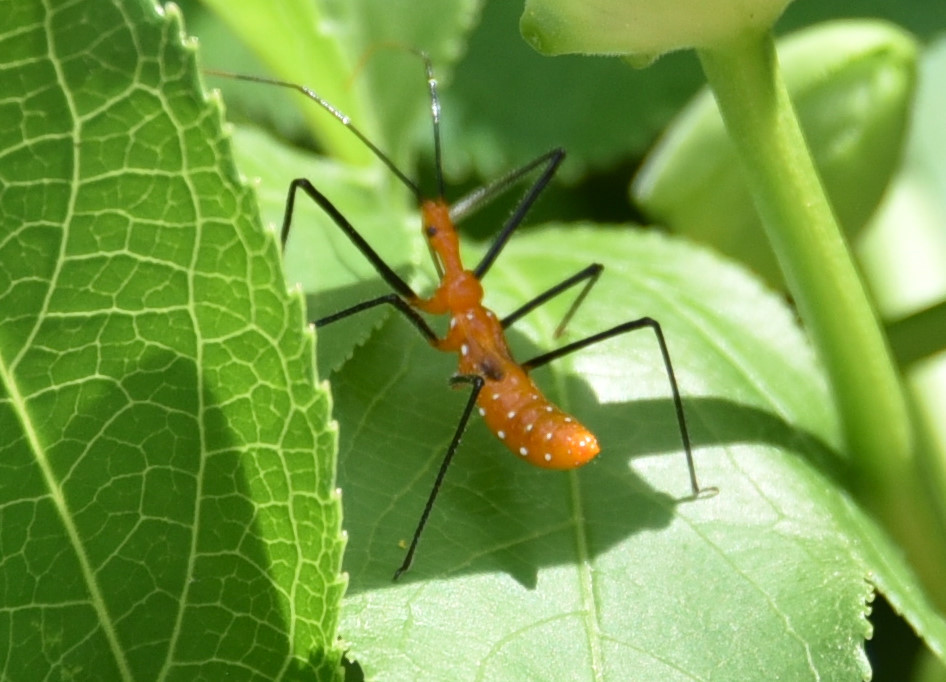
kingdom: Animalia
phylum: Arthropoda
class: Insecta
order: Hemiptera
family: Reduviidae
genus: Zelus
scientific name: Zelus longipes
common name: Milkweed assassin bug
